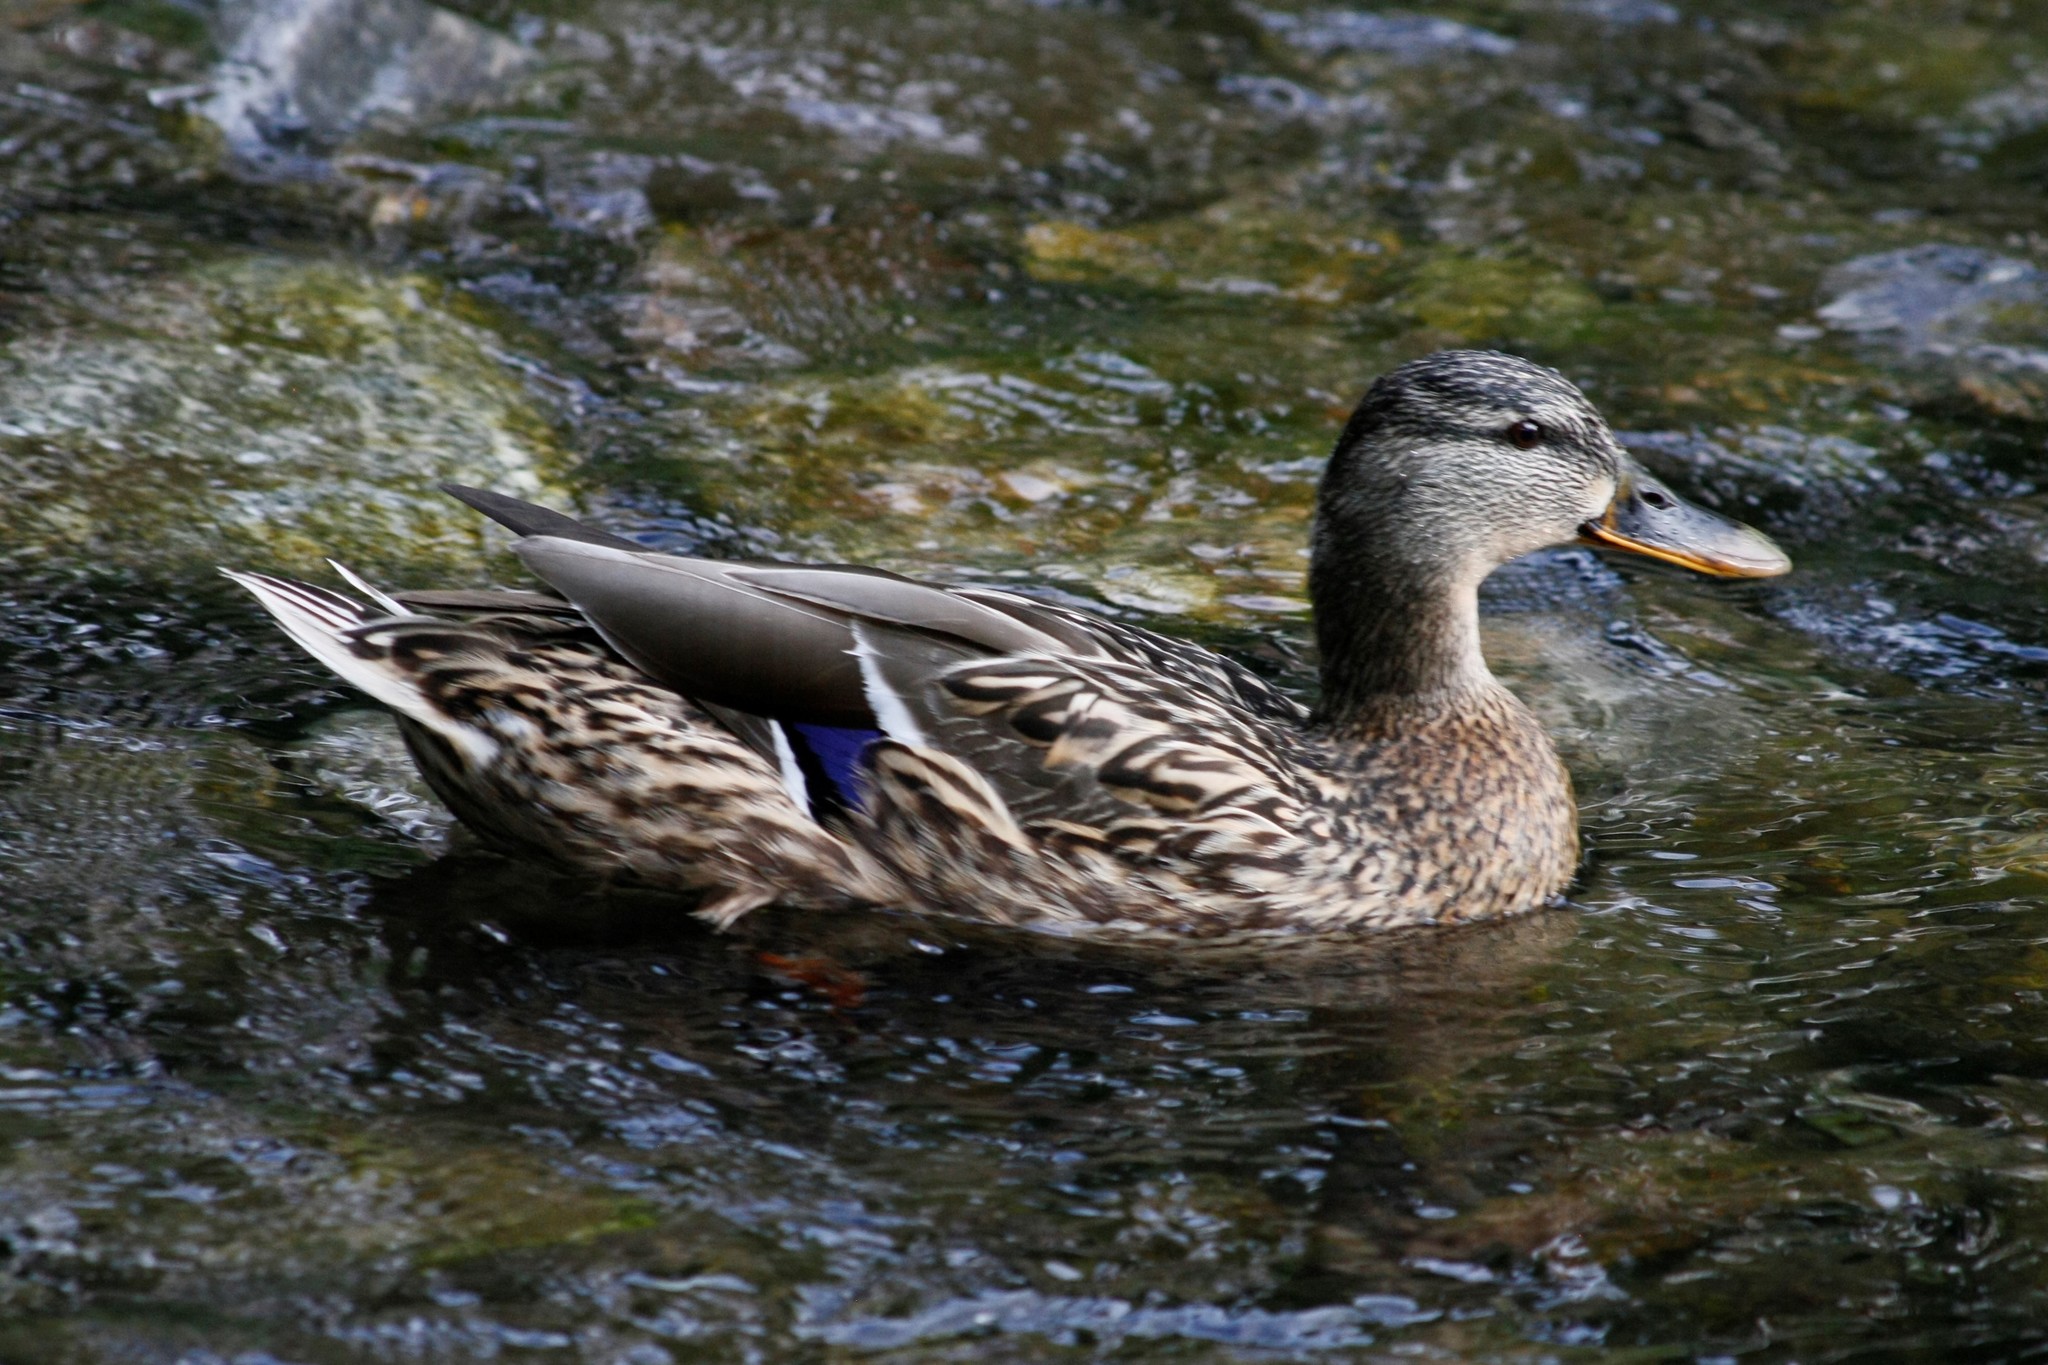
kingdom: Animalia
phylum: Chordata
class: Aves
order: Anseriformes
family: Anatidae
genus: Anas
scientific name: Anas platyrhynchos
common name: Mallard
